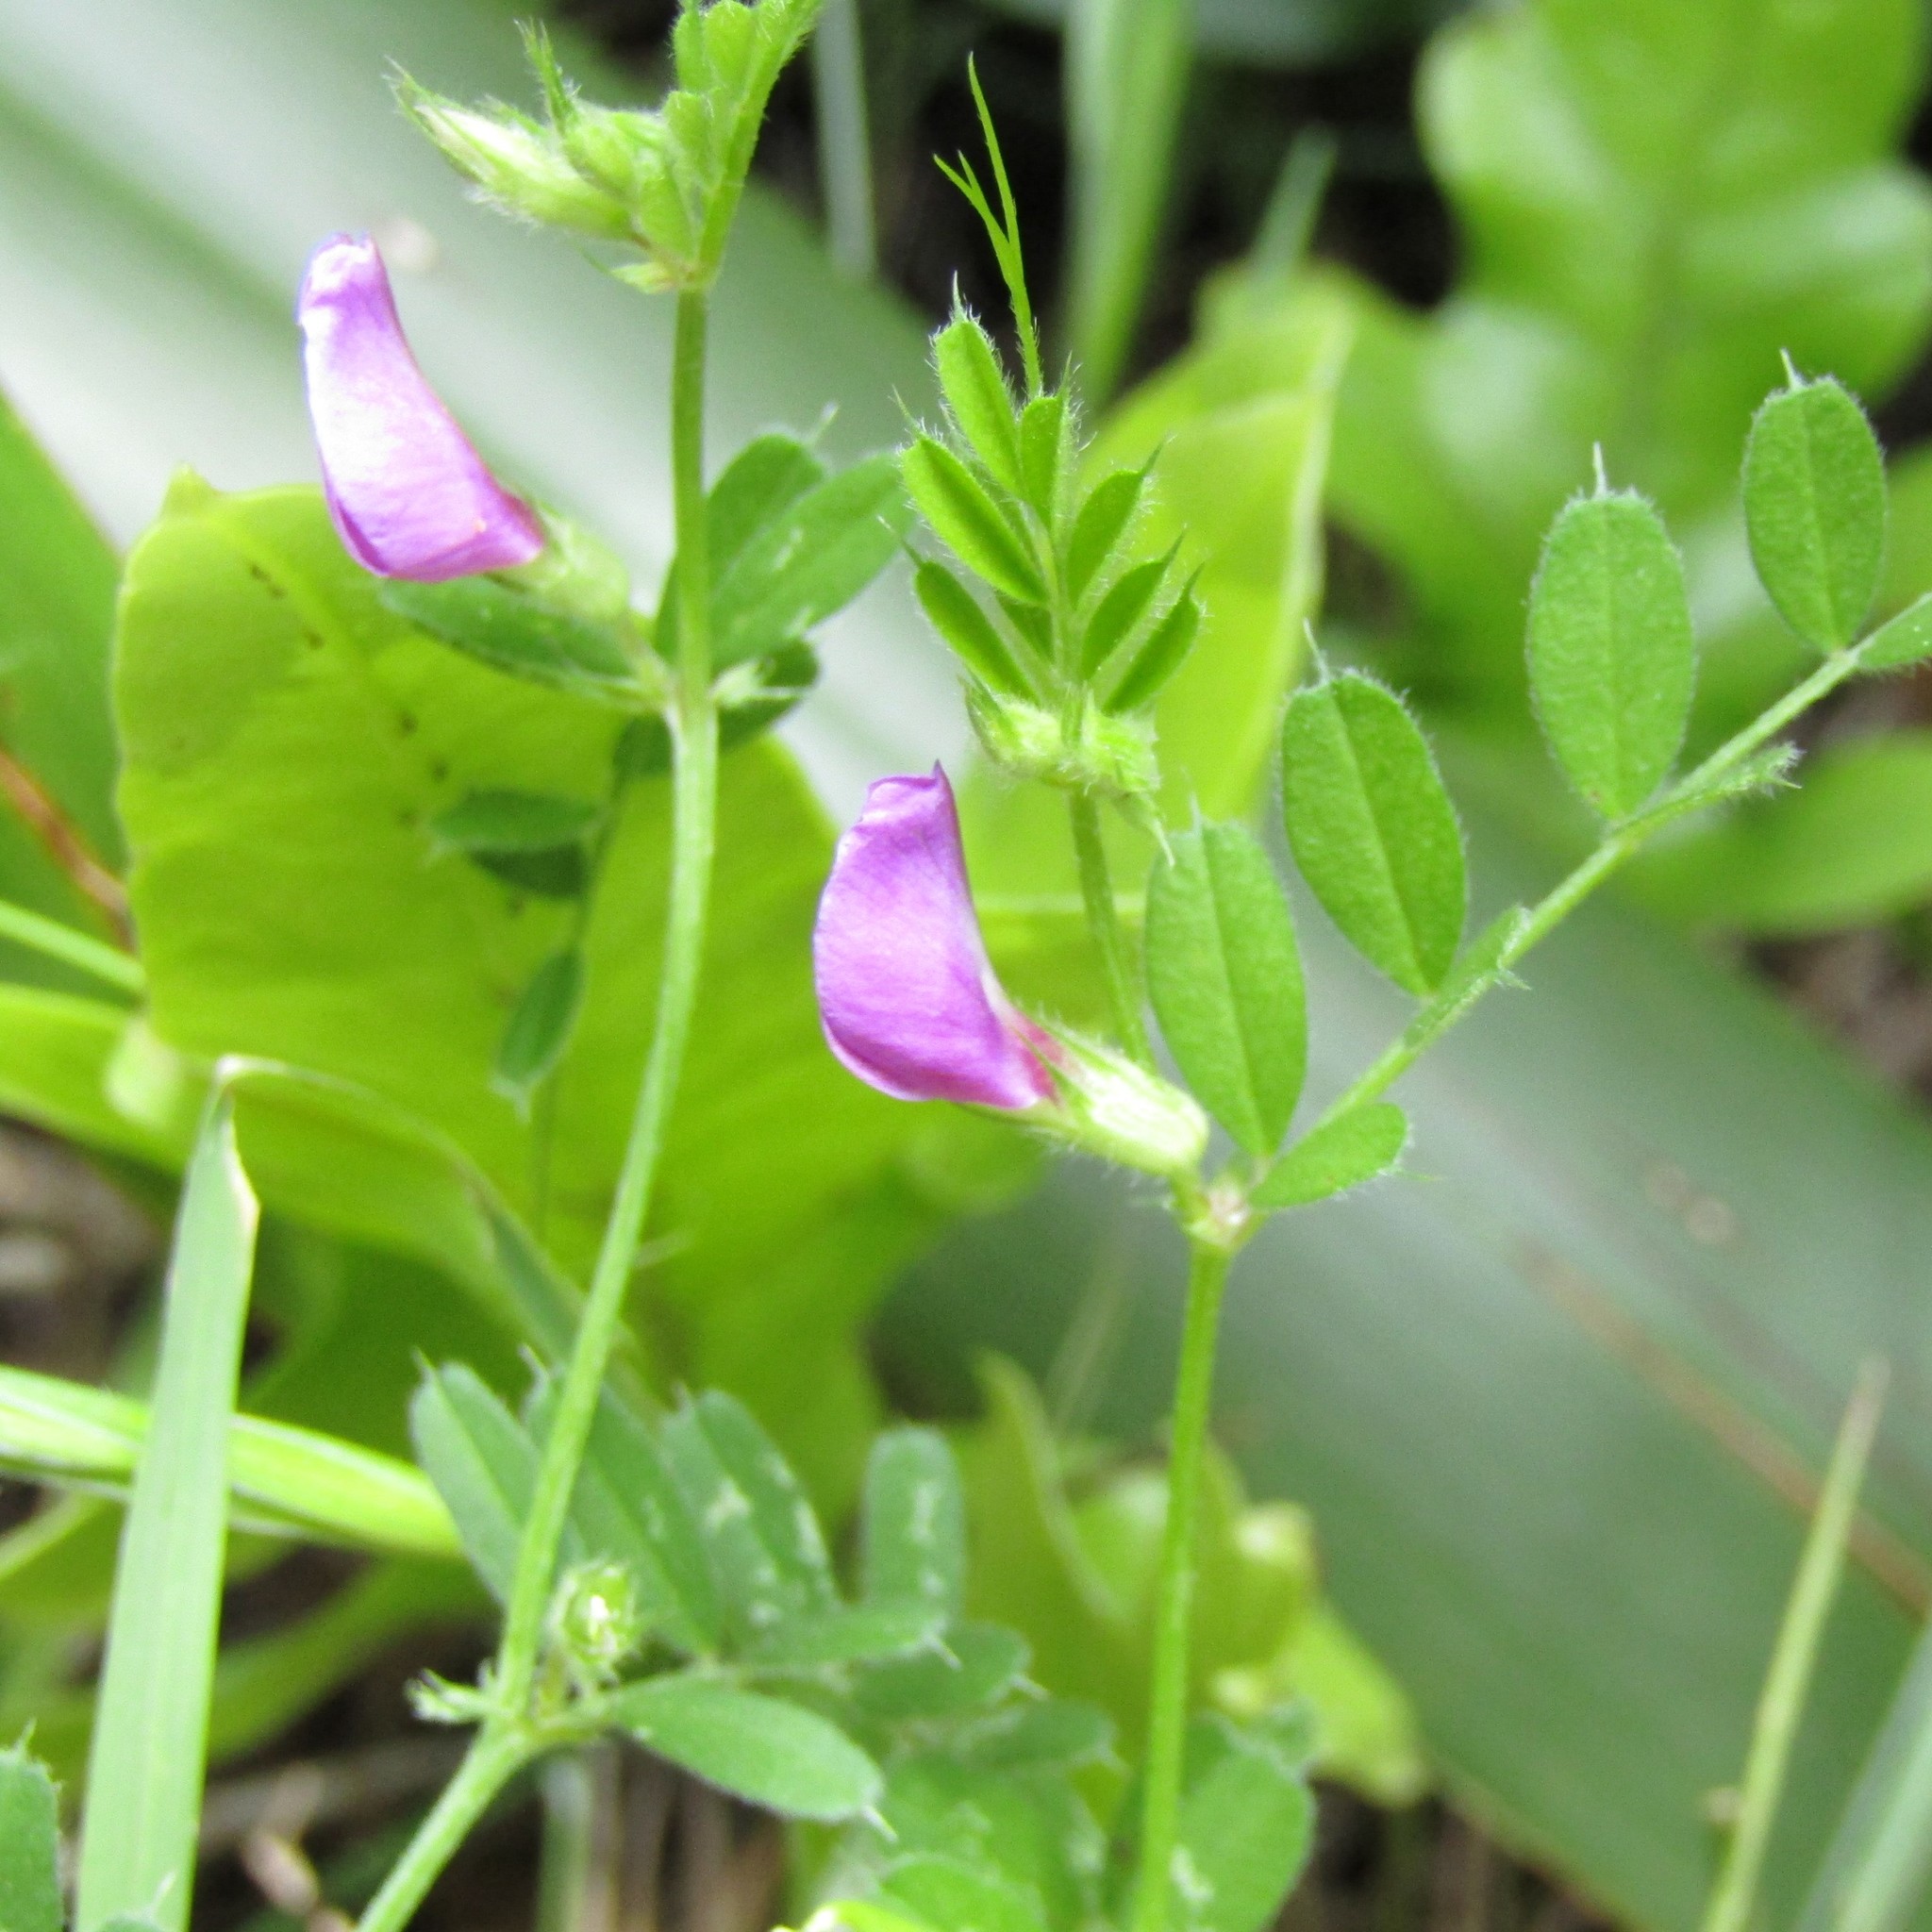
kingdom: Plantae
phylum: Tracheophyta
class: Magnoliopsida
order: Fabales
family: Fabaceae
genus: Vicia
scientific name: Vicia sativa
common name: Garden vetch
